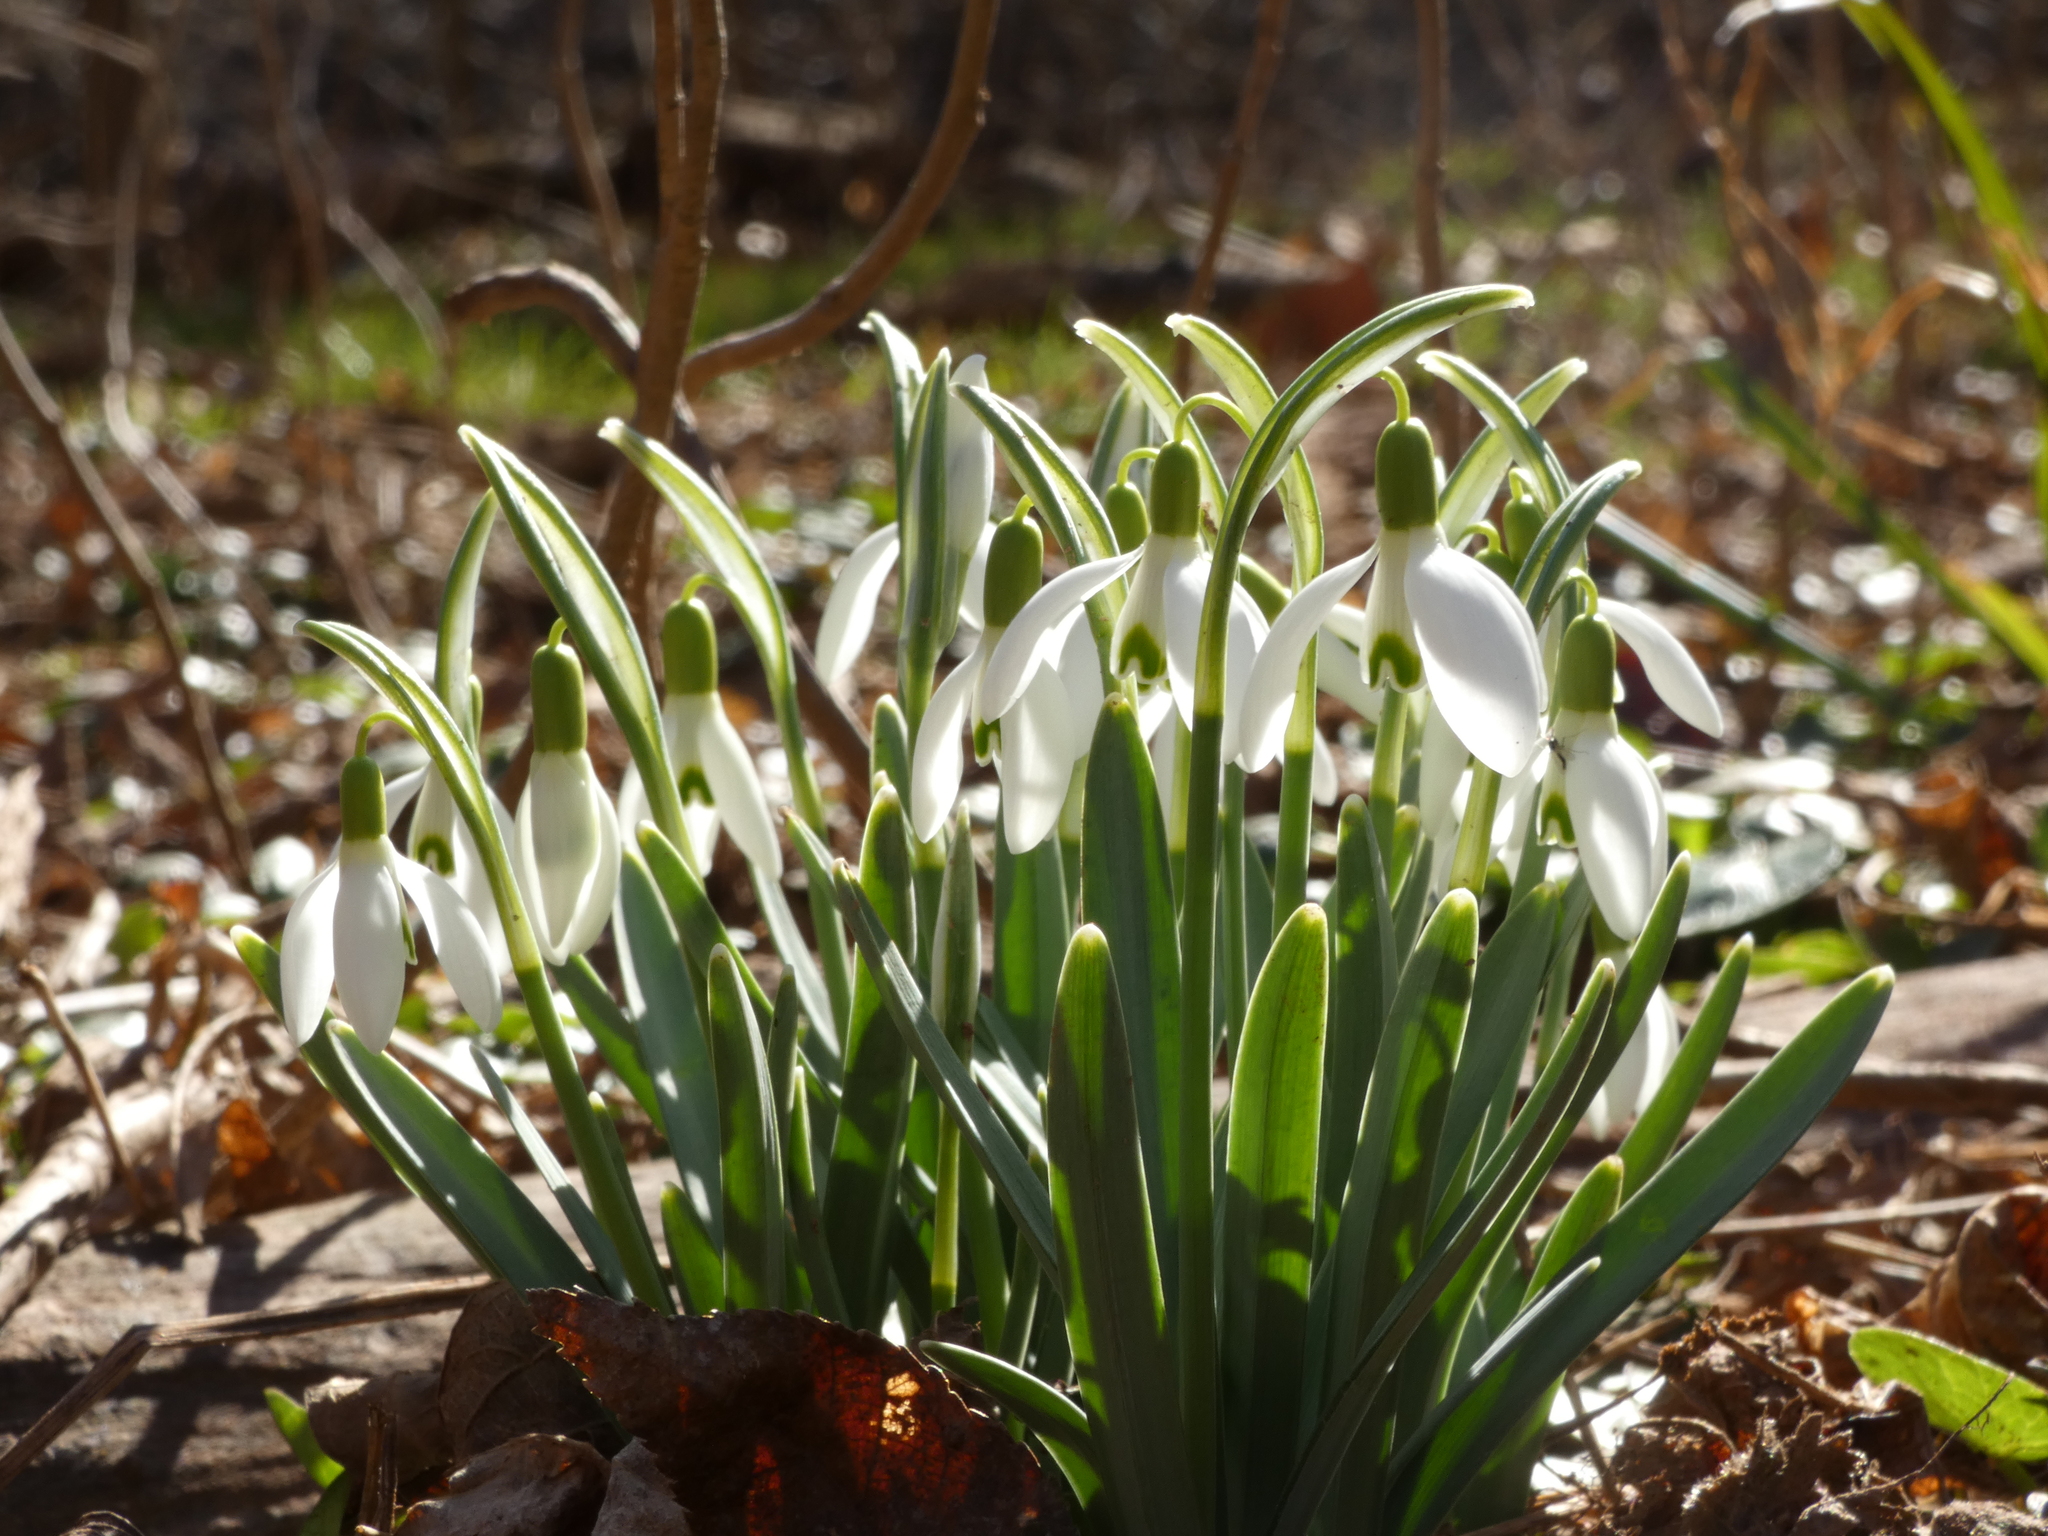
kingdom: Plantae
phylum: Tracheophyta
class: Liliopsida
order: Asparagales
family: Amaryllidaceae
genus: Galanthus
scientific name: Galanthus nivalis
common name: Snowdrop
